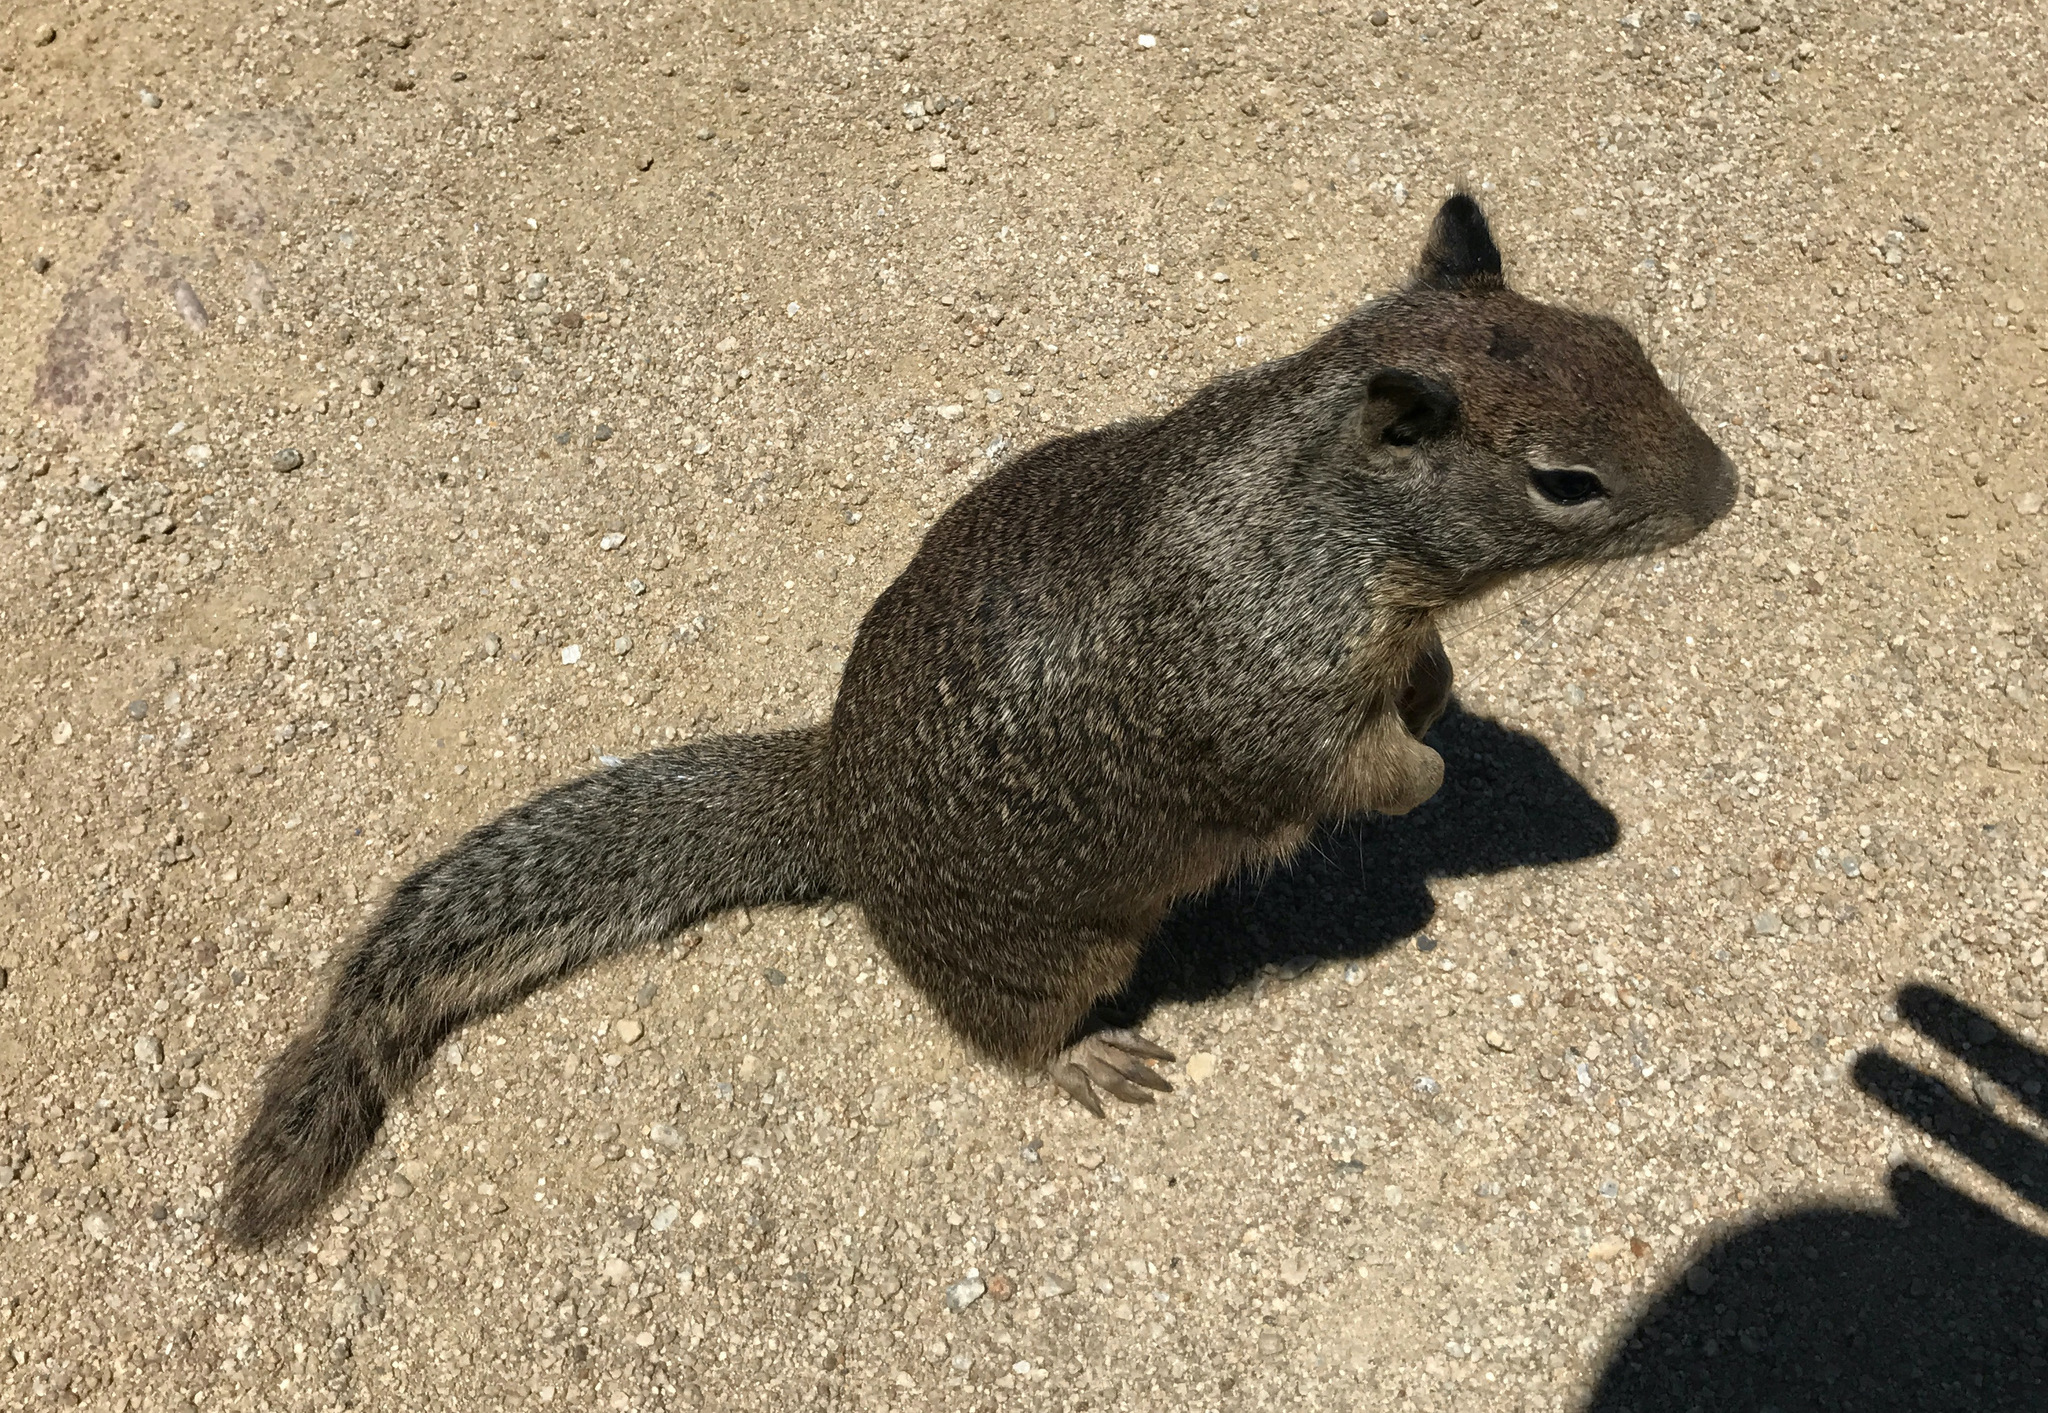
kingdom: Animalia
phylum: Chordata
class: Mammalia
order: Rodentia
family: Sciuridae
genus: Otospermophilus
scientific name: Otospermophilus beecheyi
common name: California ground squirrel
